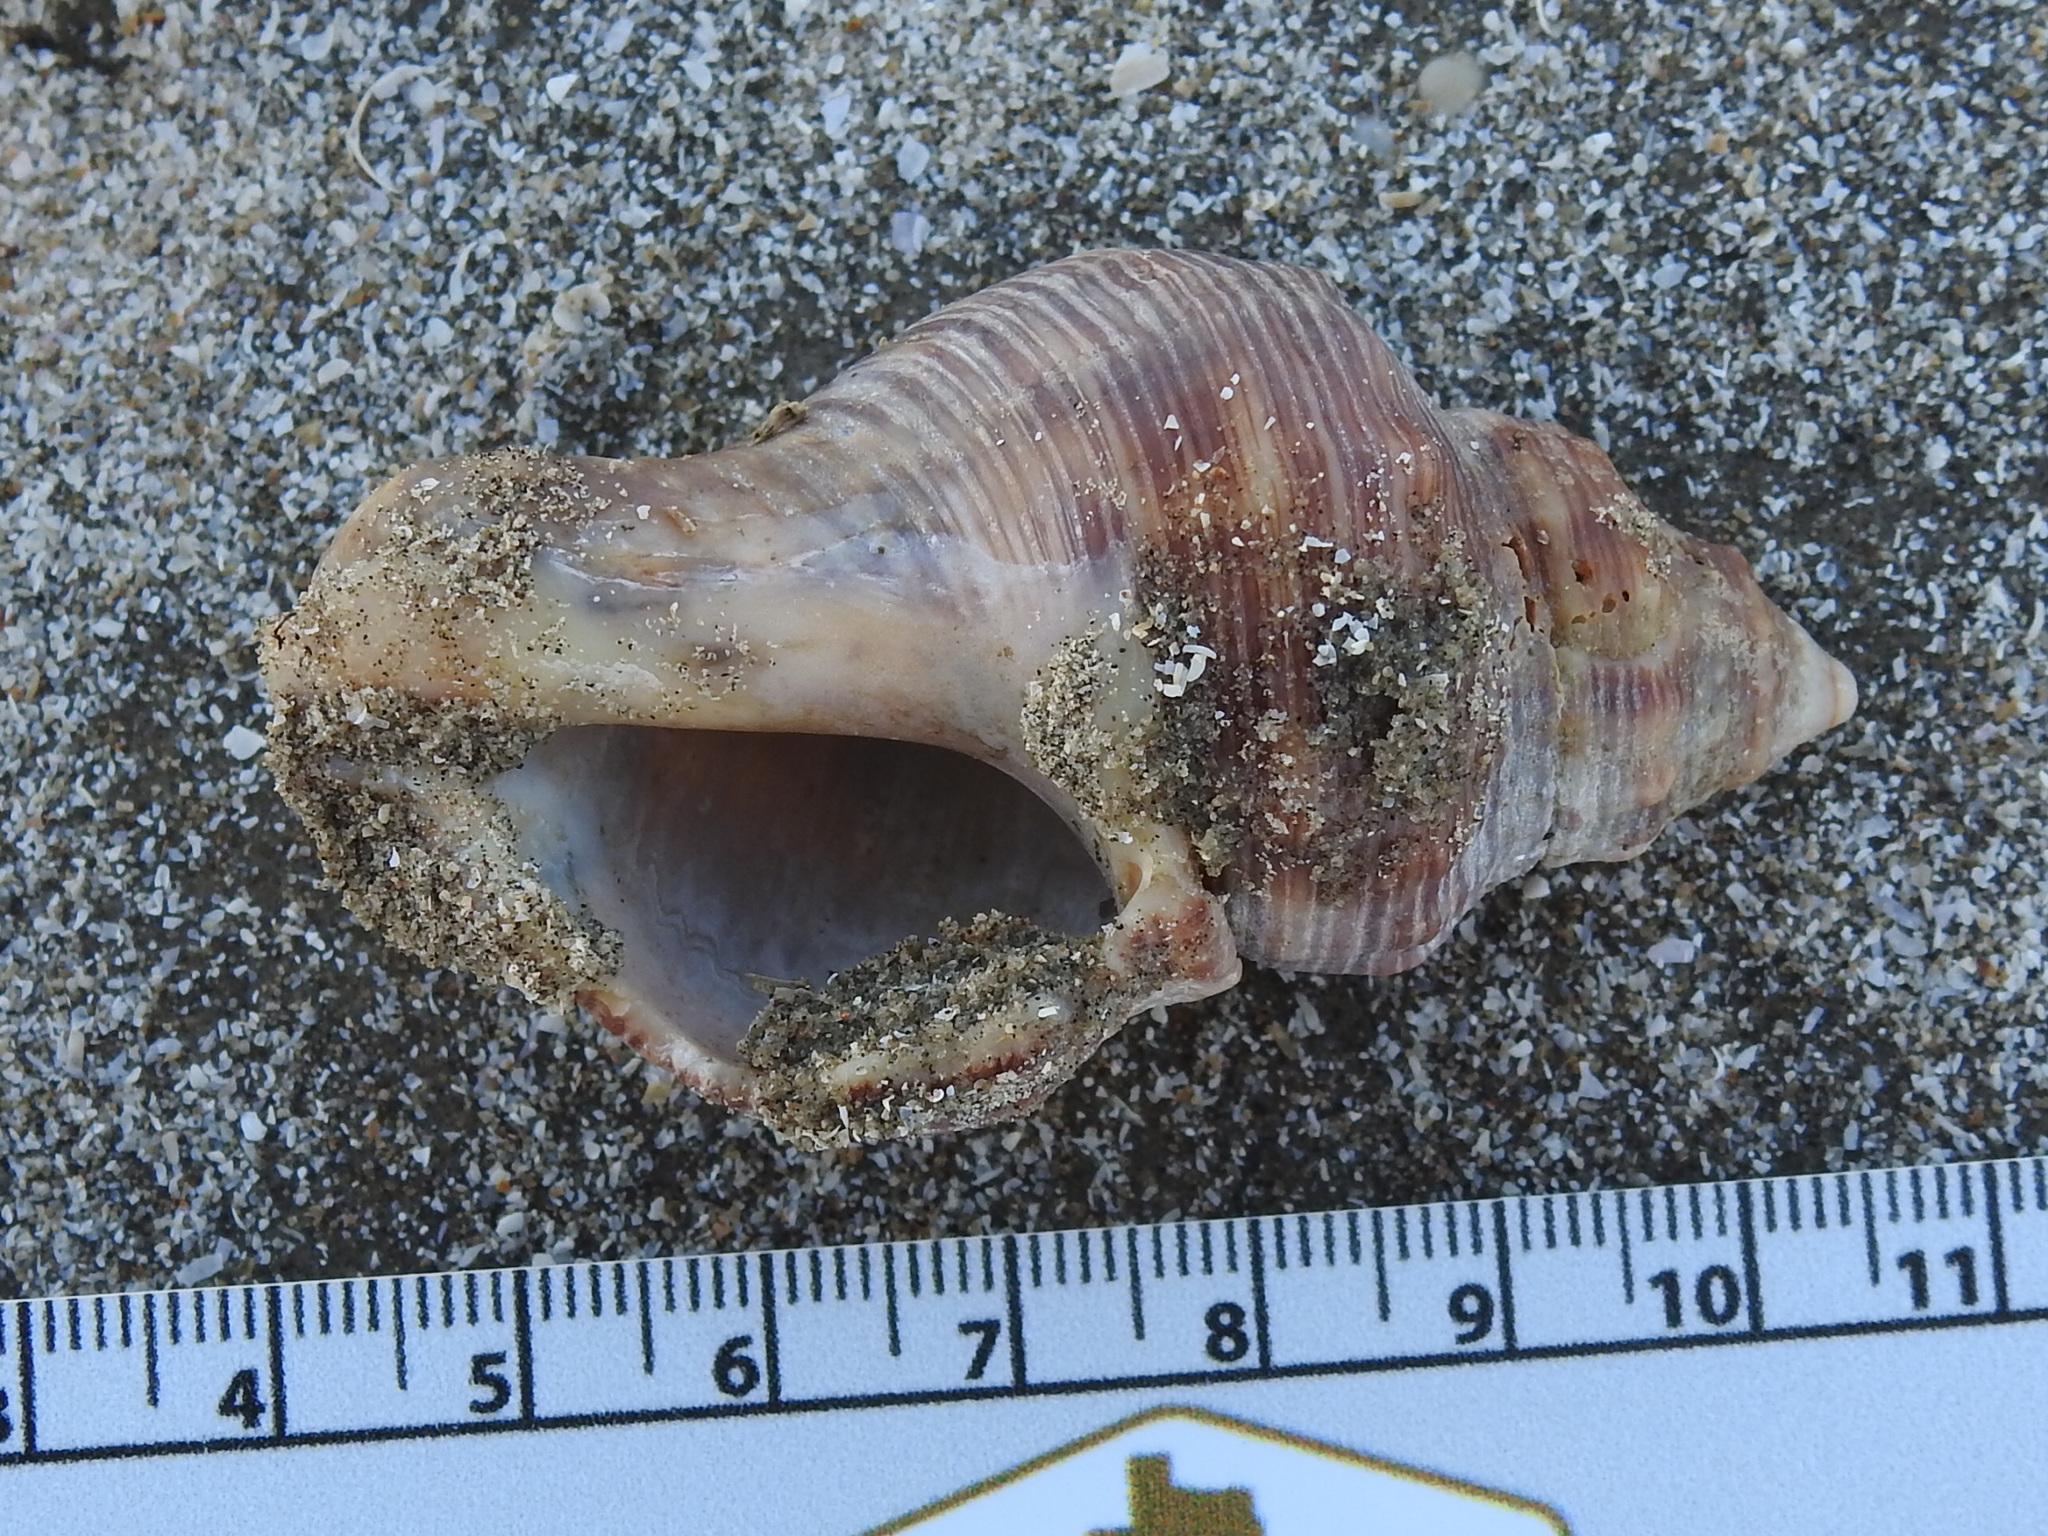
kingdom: Animalia
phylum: Mollusca
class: Gastropoda
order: Neogastropoda
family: Muricidae
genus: Stramonita
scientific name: Stramonita canaliculata
